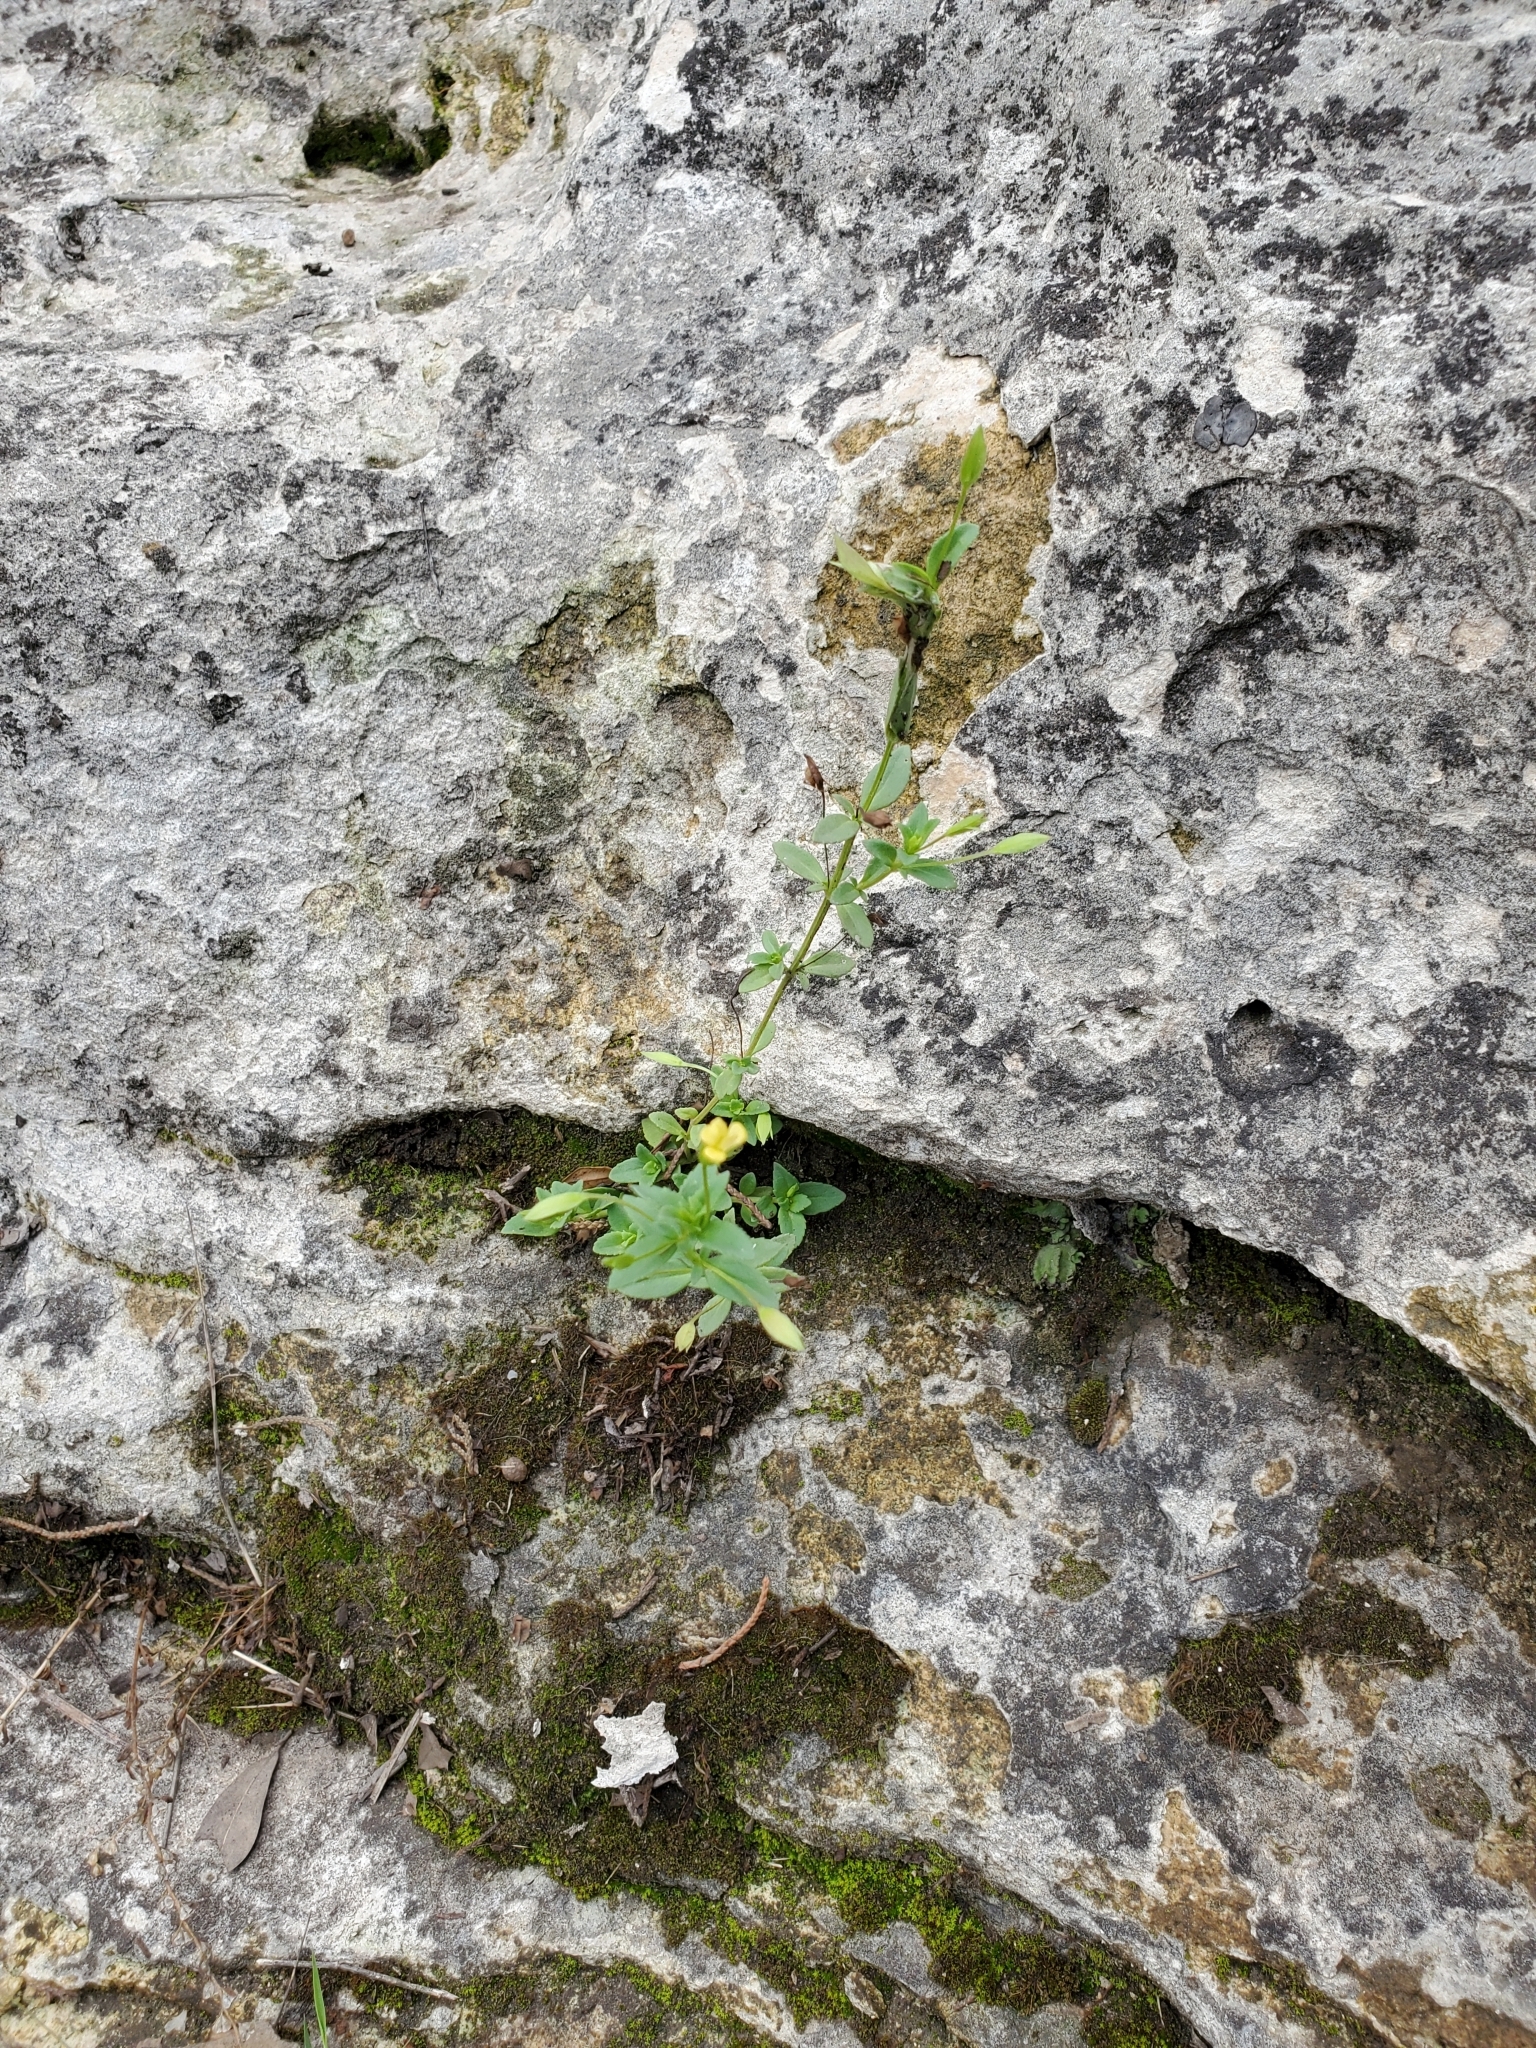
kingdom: Plantae
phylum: Tracheophyta
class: Magnoliopsida
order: Lamiales
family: Plantaginaceae
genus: Mecardonia
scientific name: Mecardonia procumbens
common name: Baby jump-up
